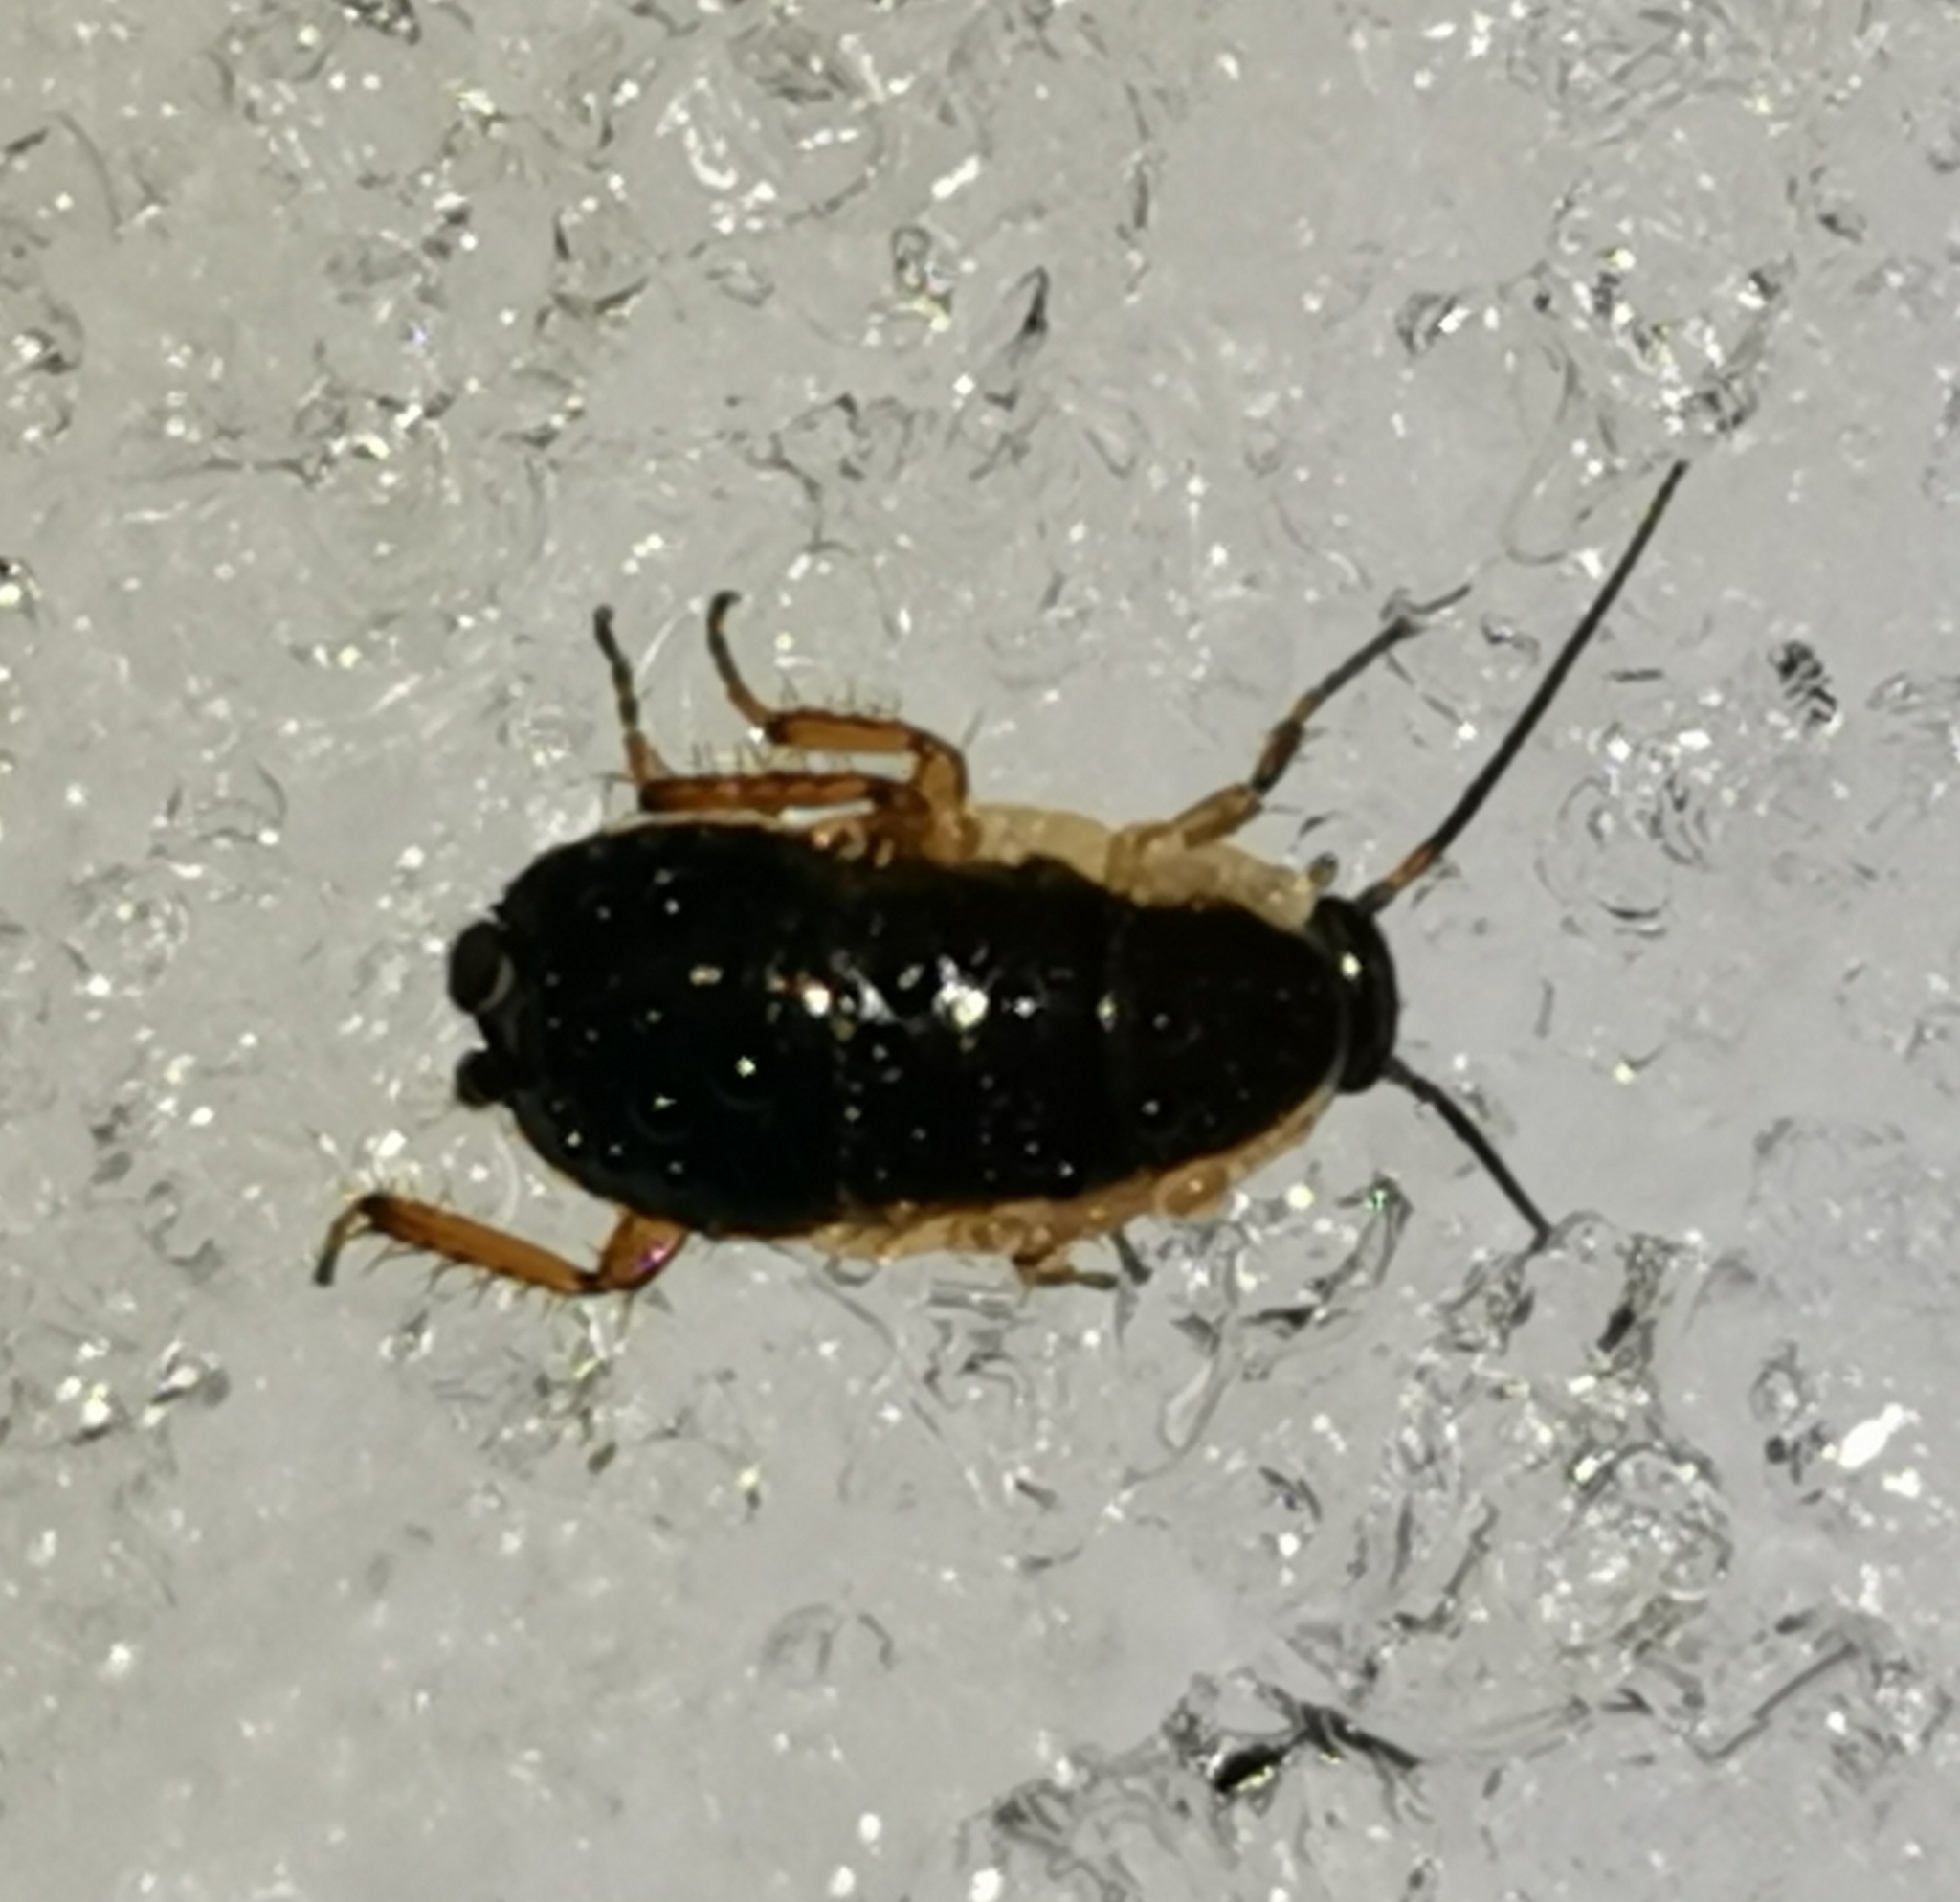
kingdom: Animalia
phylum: Arthropoda
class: Insecta
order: Blattodea
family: Ectobiidae
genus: Ectobius
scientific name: Ectobius sylvestris
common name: Forest cockroach
